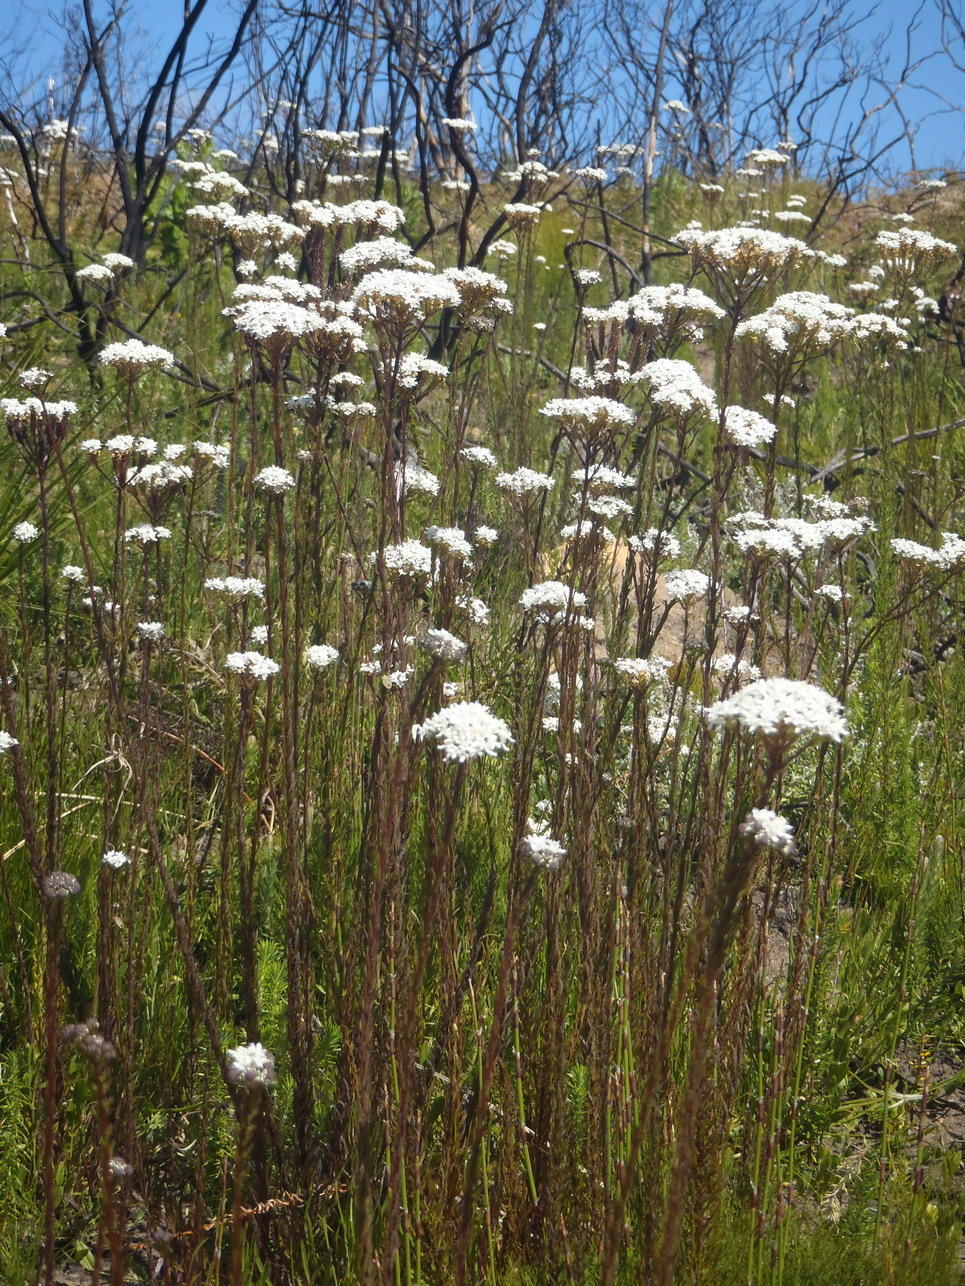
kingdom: Plantae
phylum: Tracheophyta
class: Magnoliopsida
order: Lamiales
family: Scrophulariaceae
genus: Pseudoselago
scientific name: Pseudoselago outeniquensis
